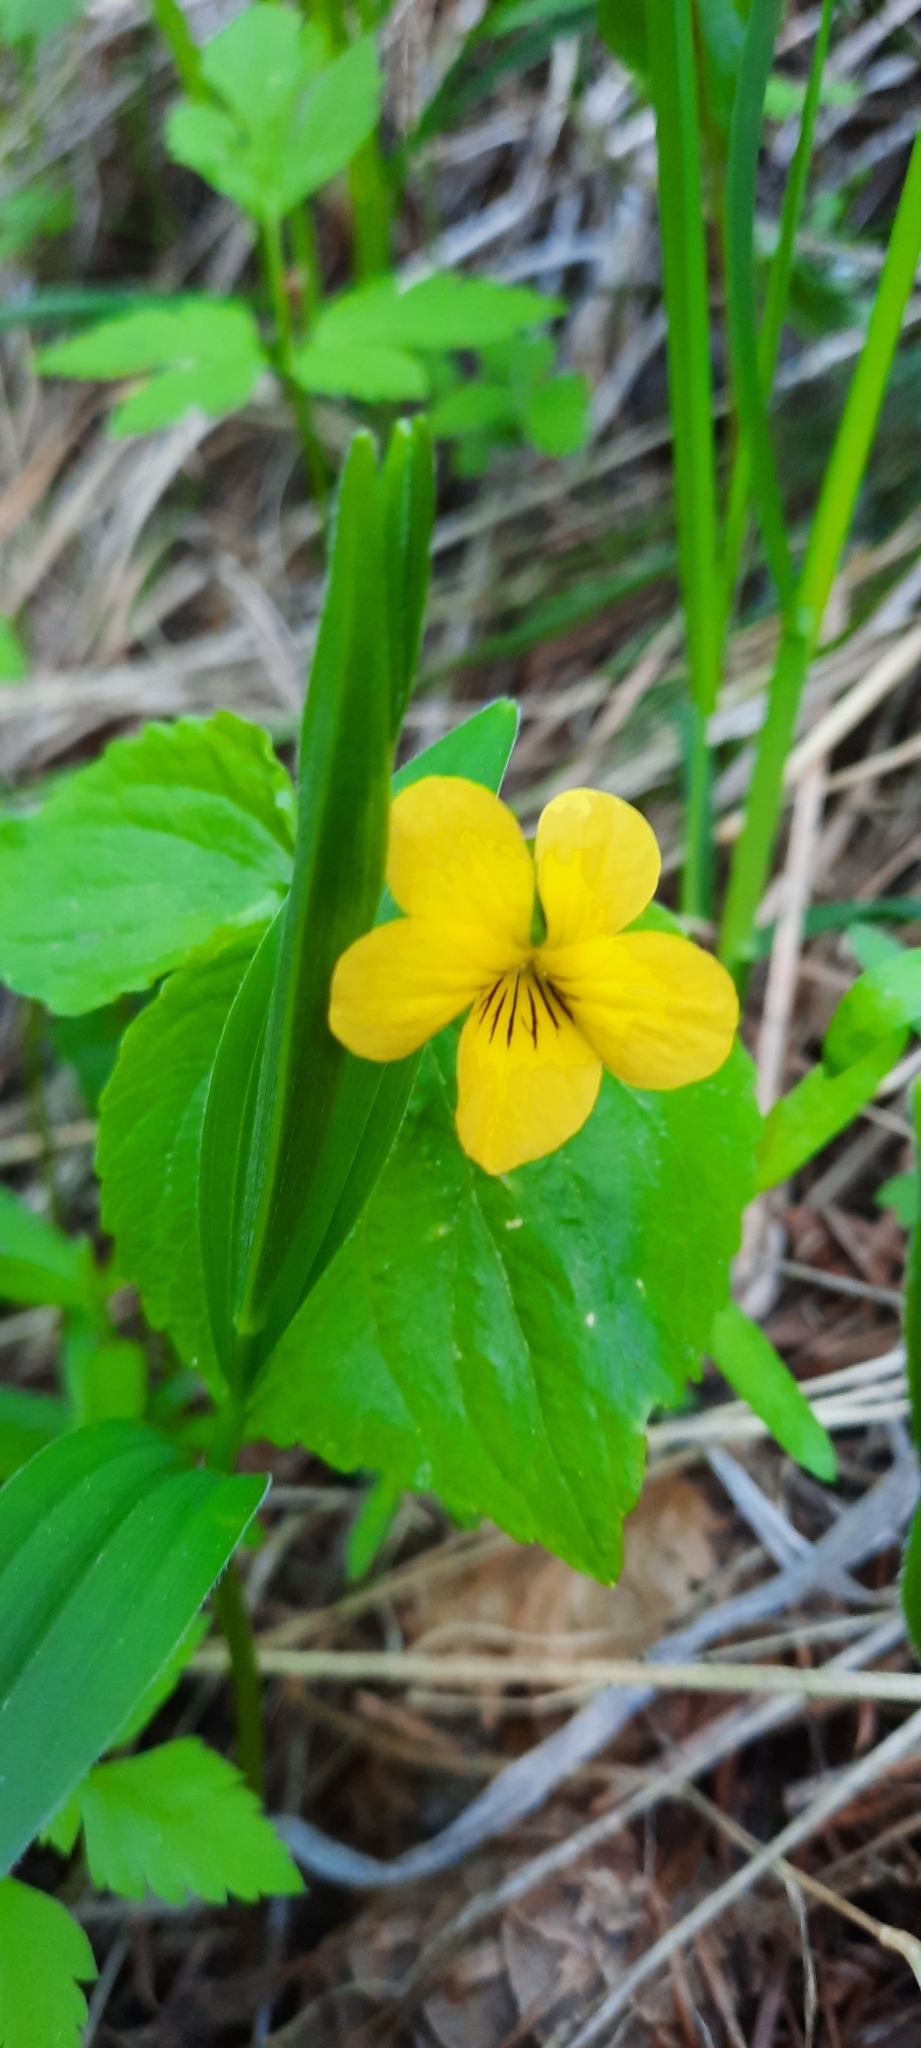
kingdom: Plantae
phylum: Tracheophyta
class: Magnoliopsida
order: Malpighiales
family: Violaceae
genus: Viola
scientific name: Viola glabella
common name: Stream violet
